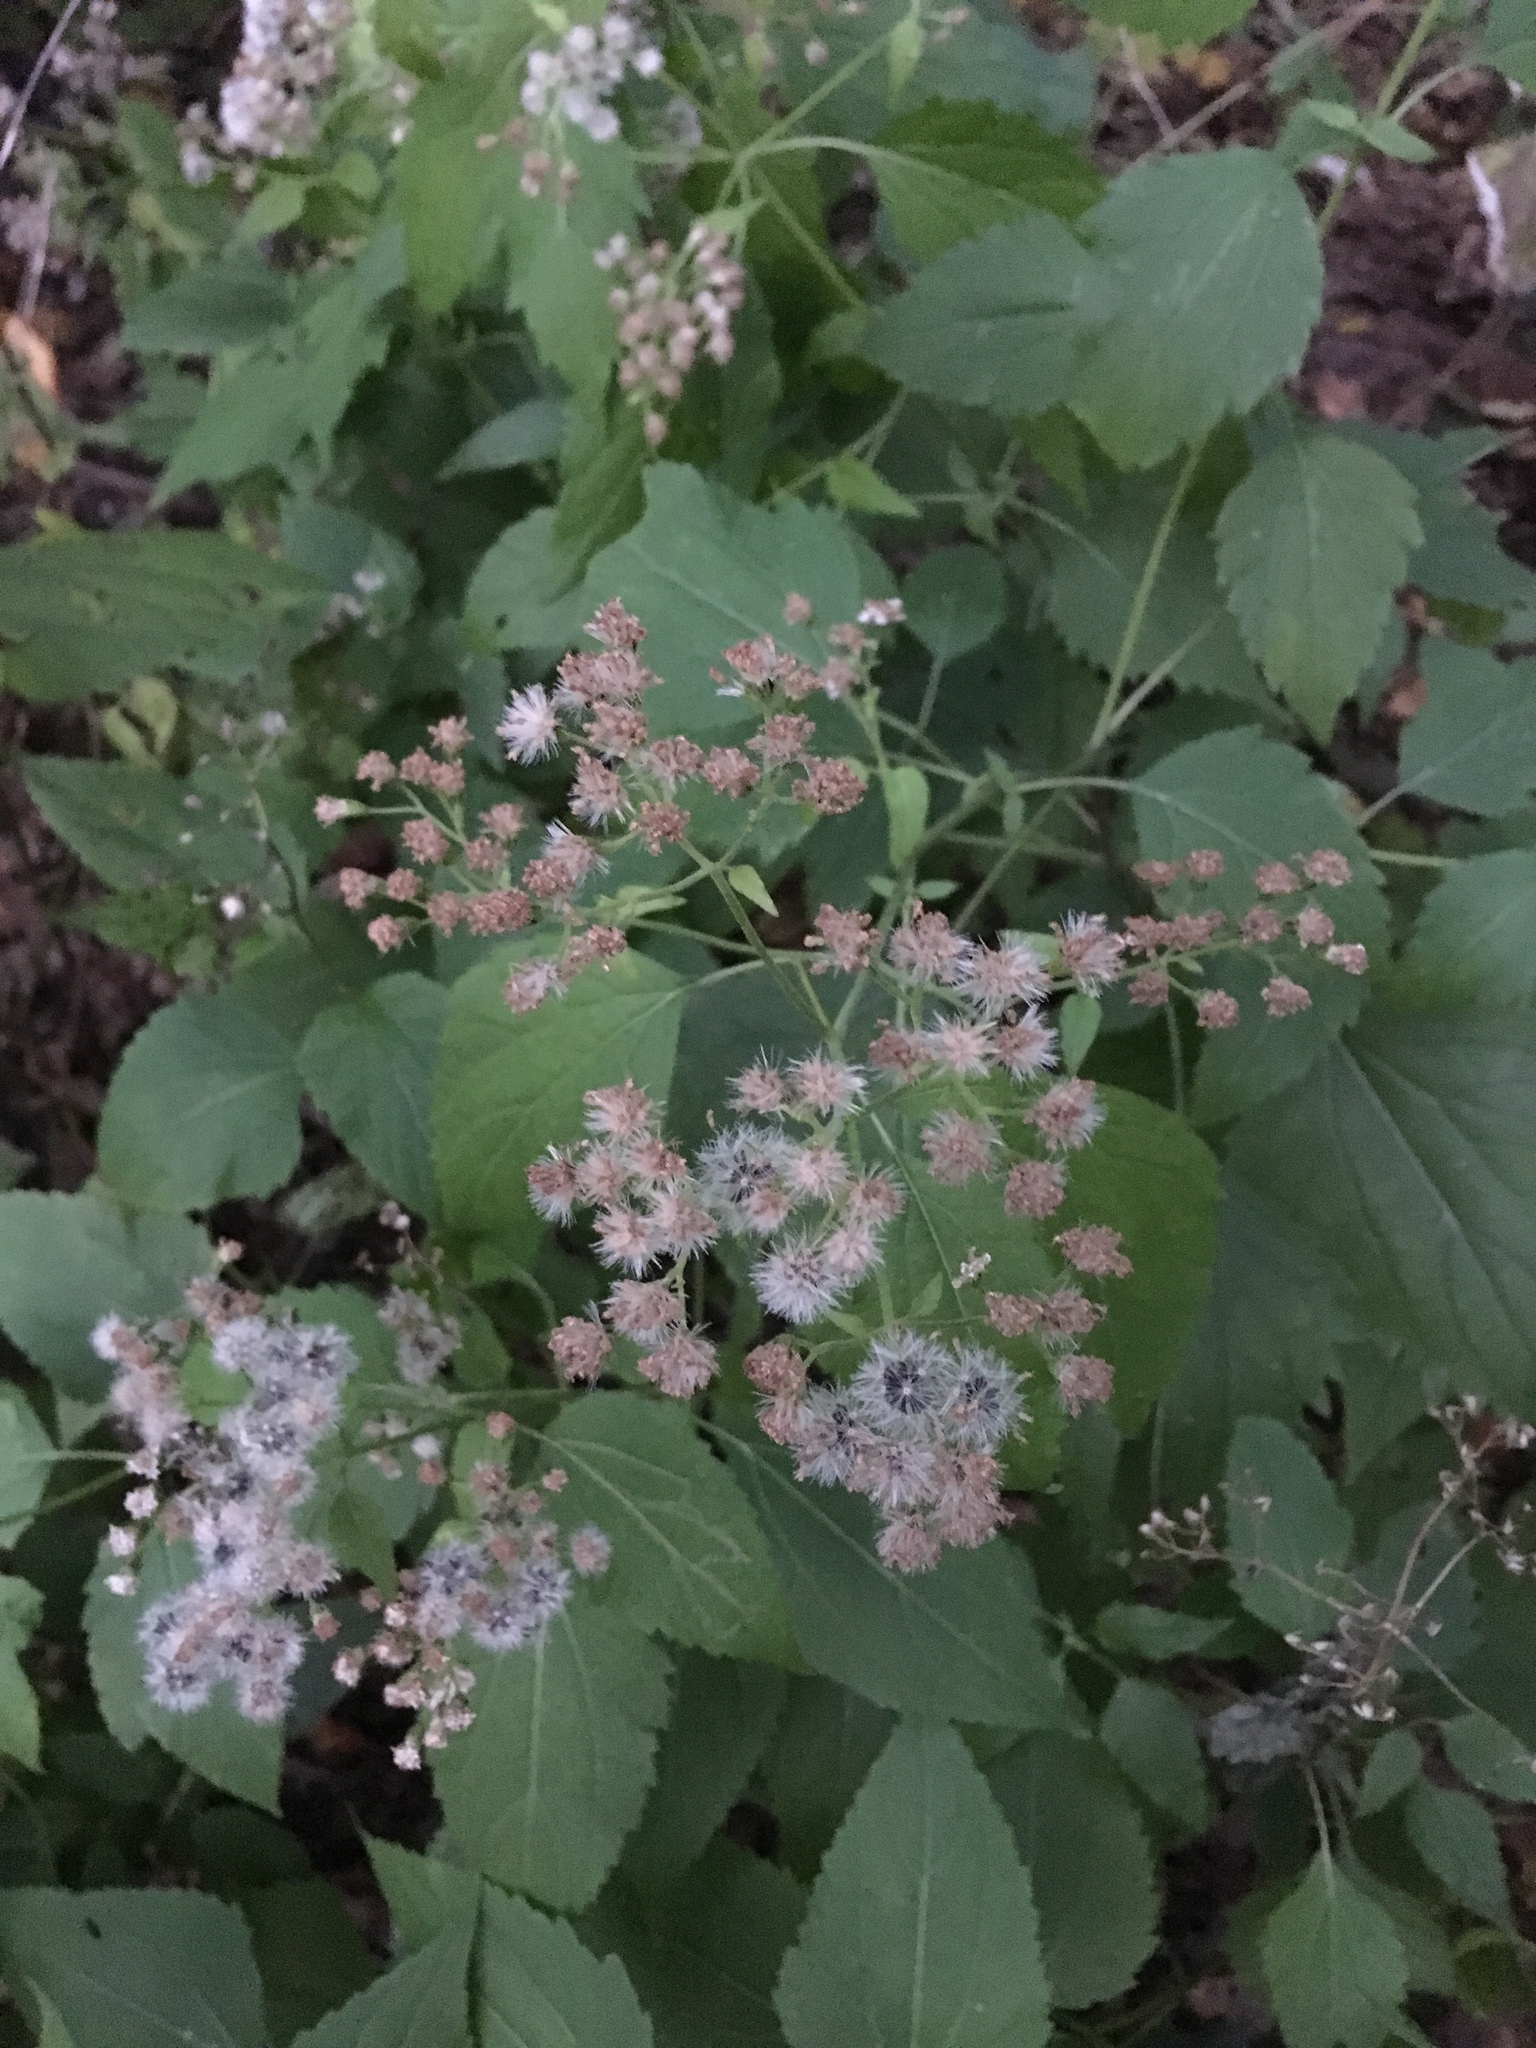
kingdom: Plantae
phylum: Tracheophyta
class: Magnoliopsida
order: Asterales
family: Asteraceae
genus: Ageratina
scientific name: Ageratina altissima
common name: White snakeroot
